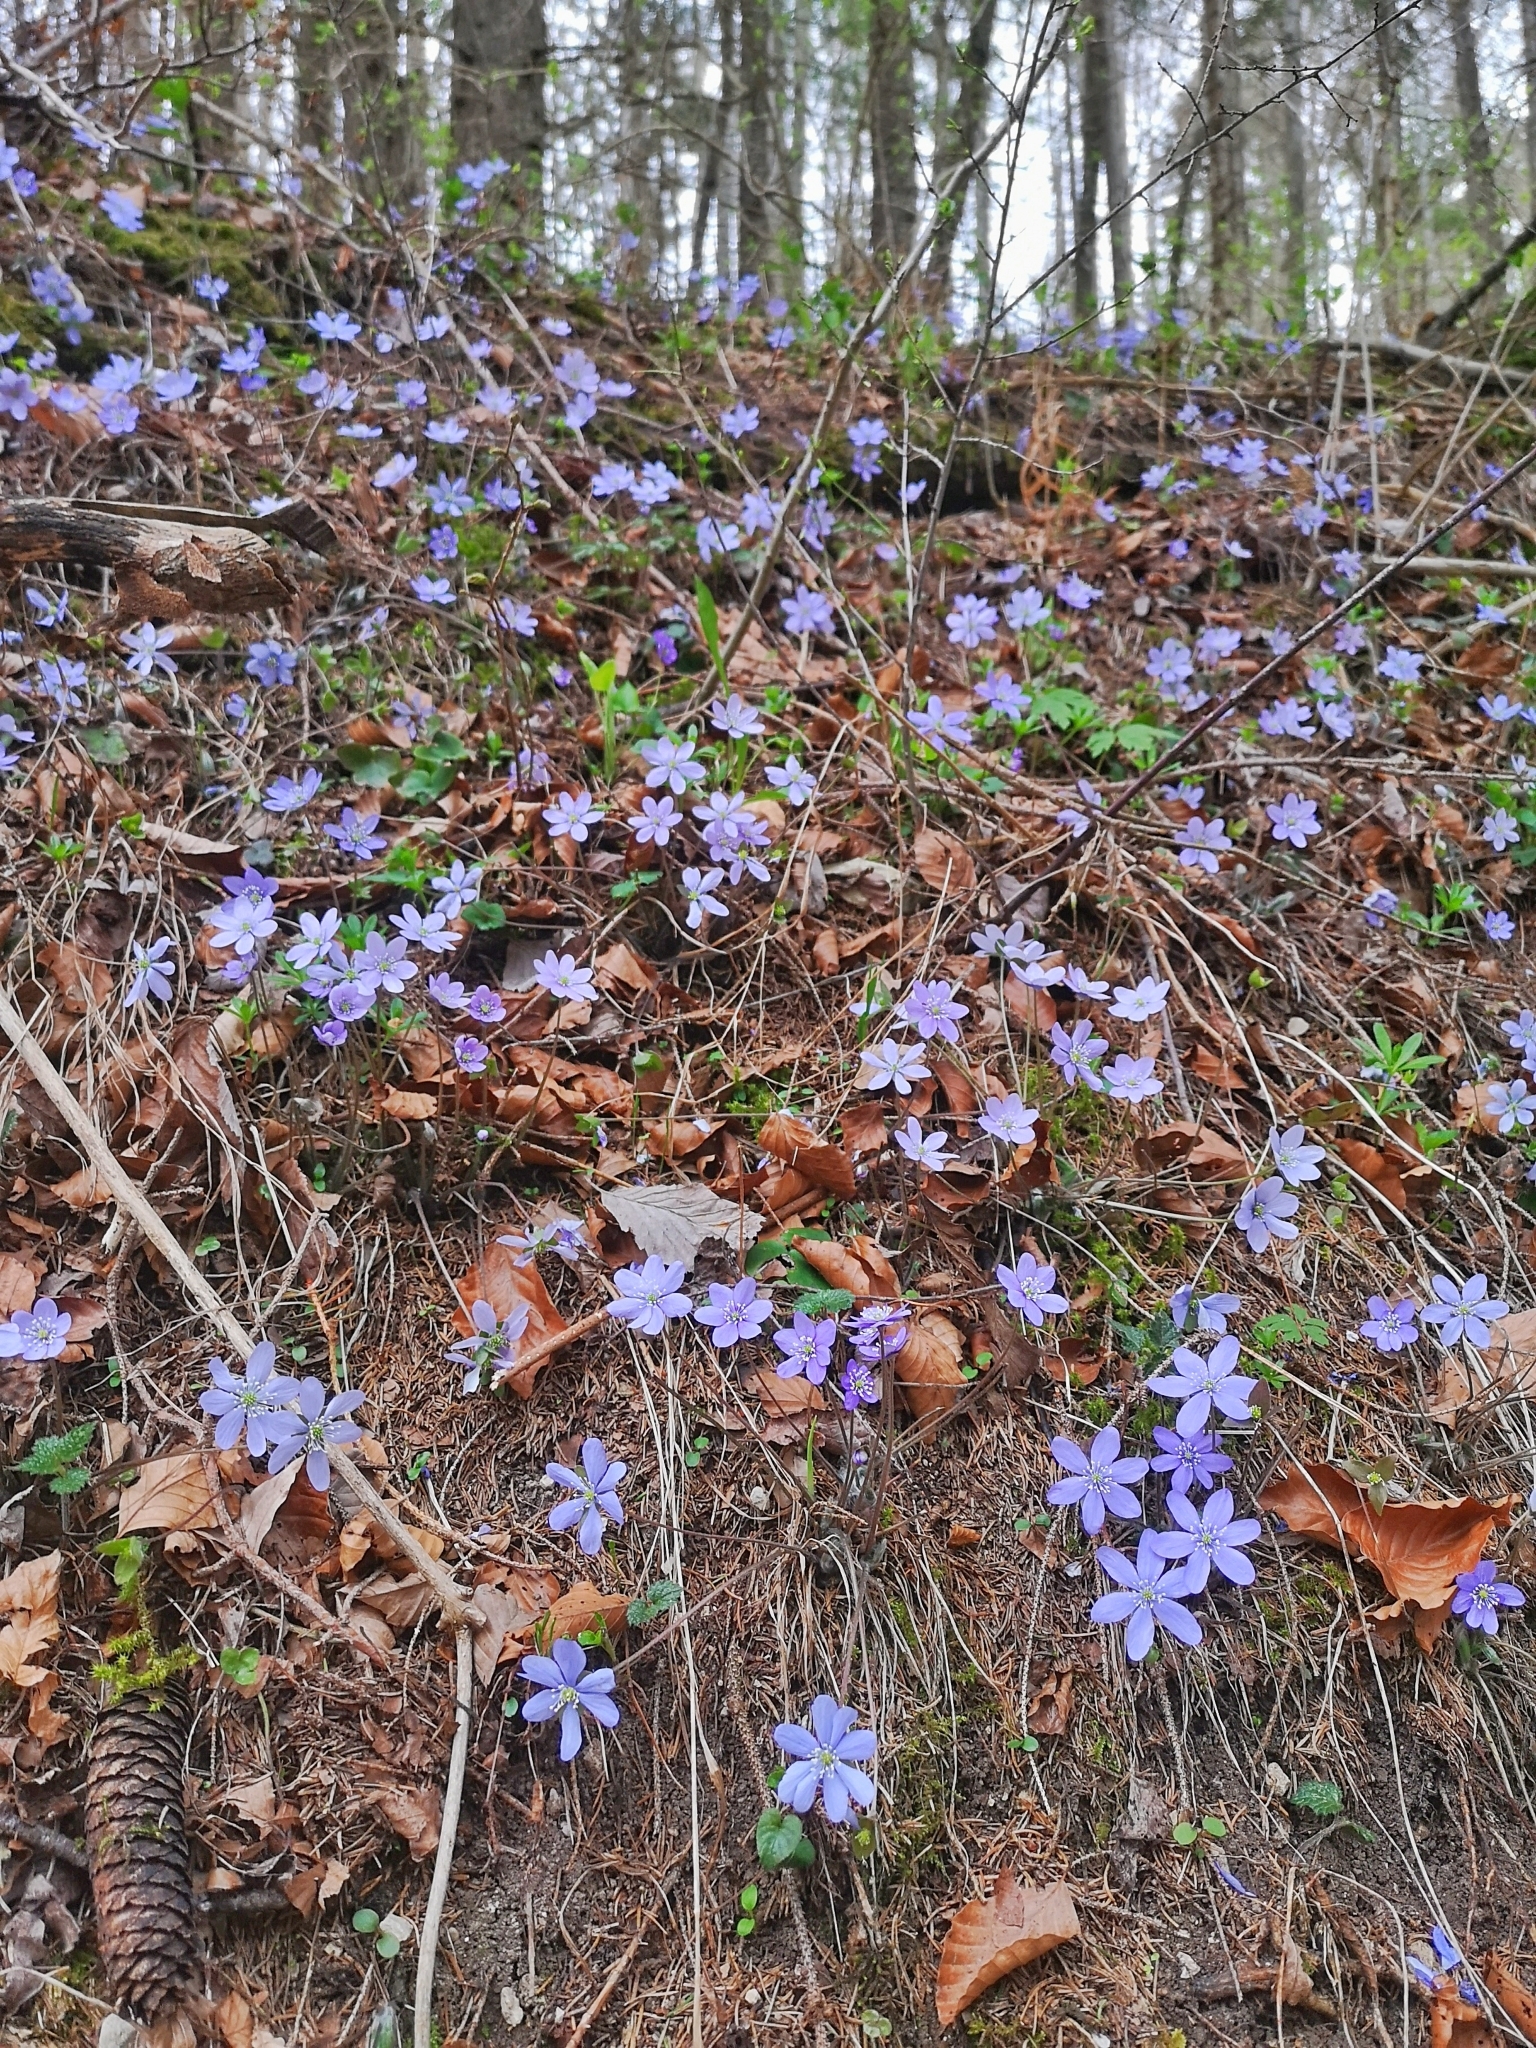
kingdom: Plantae
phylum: Tracheophyta
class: Magnoliopsida
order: Ranunculales
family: Ranunculaceae
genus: Hepatica
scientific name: Hepatica nobilis
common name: Liverleaf
